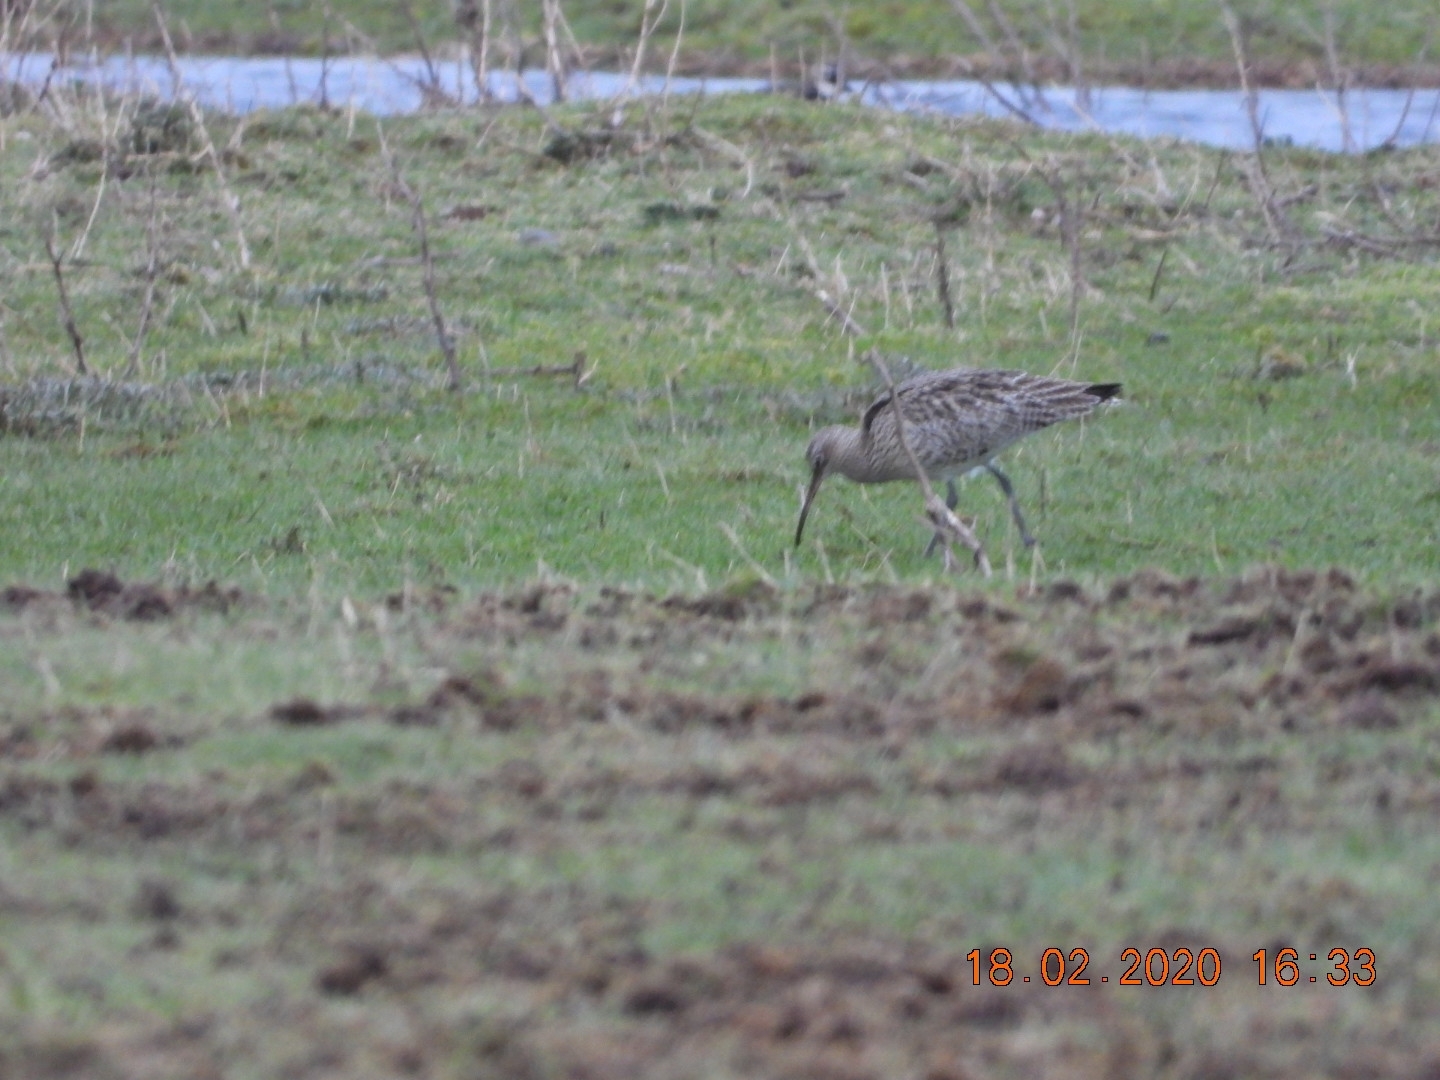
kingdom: Animalia
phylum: Chordata
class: Aves
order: Charadriiformes
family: Scolopacidae
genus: Numenius
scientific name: Numenius arquata
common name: Eurasian curlew
